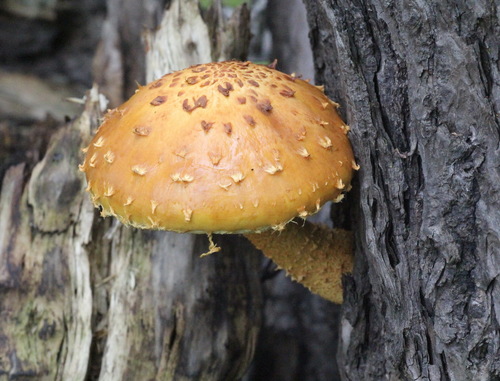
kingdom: Fungi
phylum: Basidiomycota
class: Agaricomycetes
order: Agaricales
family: Strophariaceae
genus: Pholiota
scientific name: Pholiota
